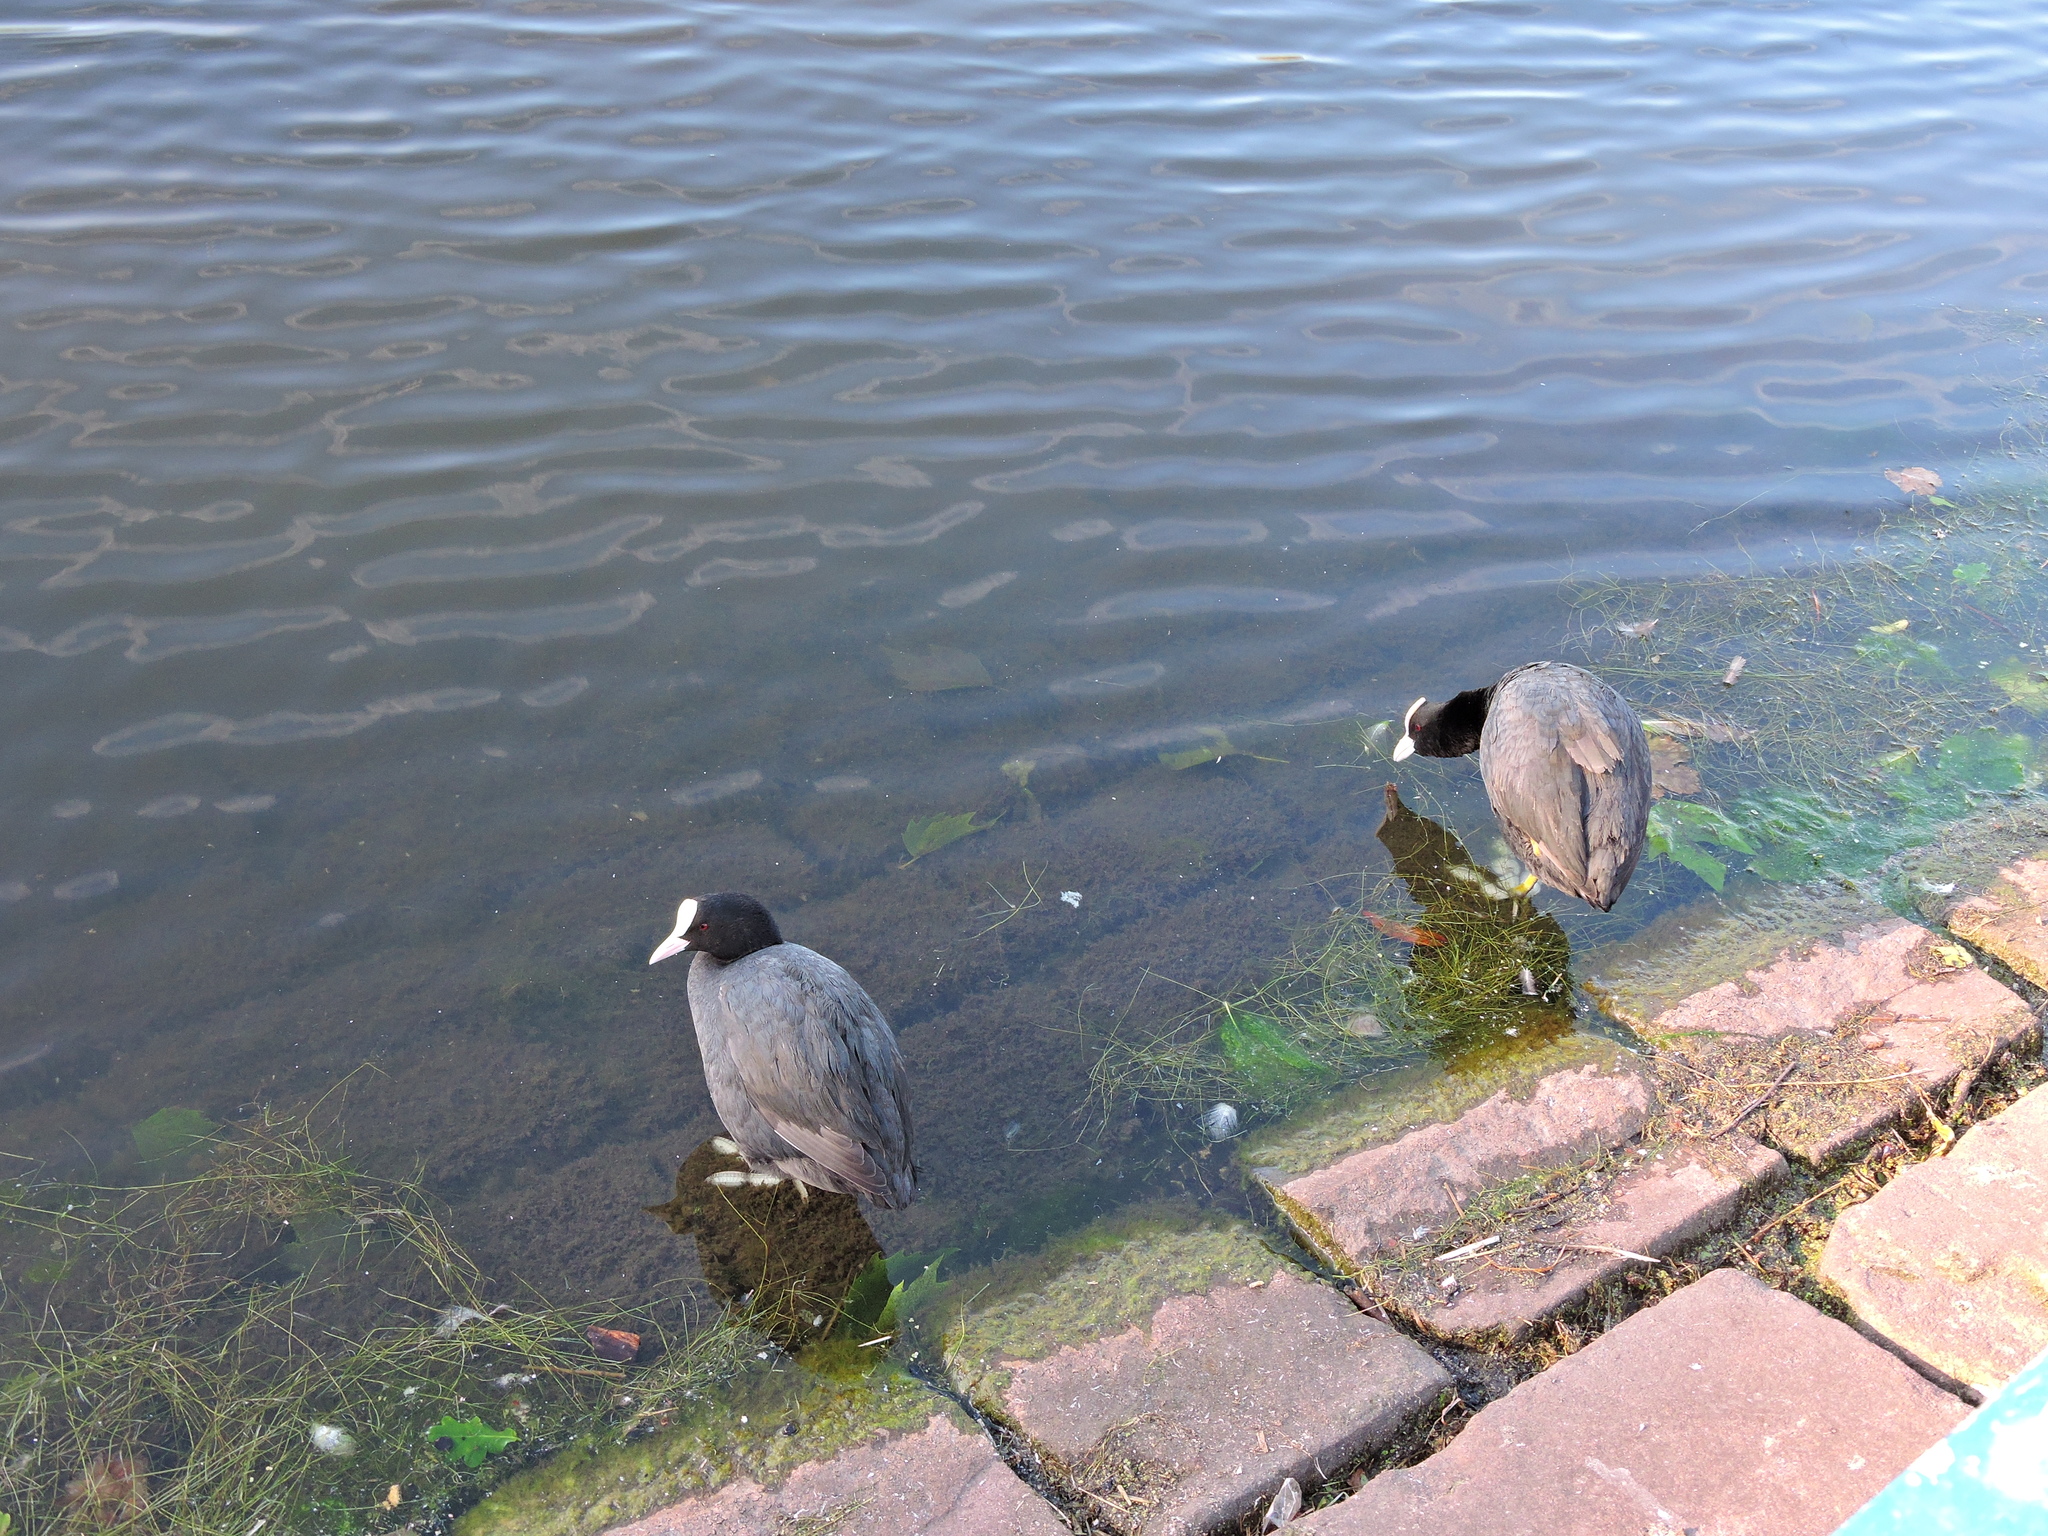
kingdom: Animalia
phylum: Chordata
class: Aves
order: Gruiformes
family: Rallidae
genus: Fulica
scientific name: Fulica atra
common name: Eurasian coot
